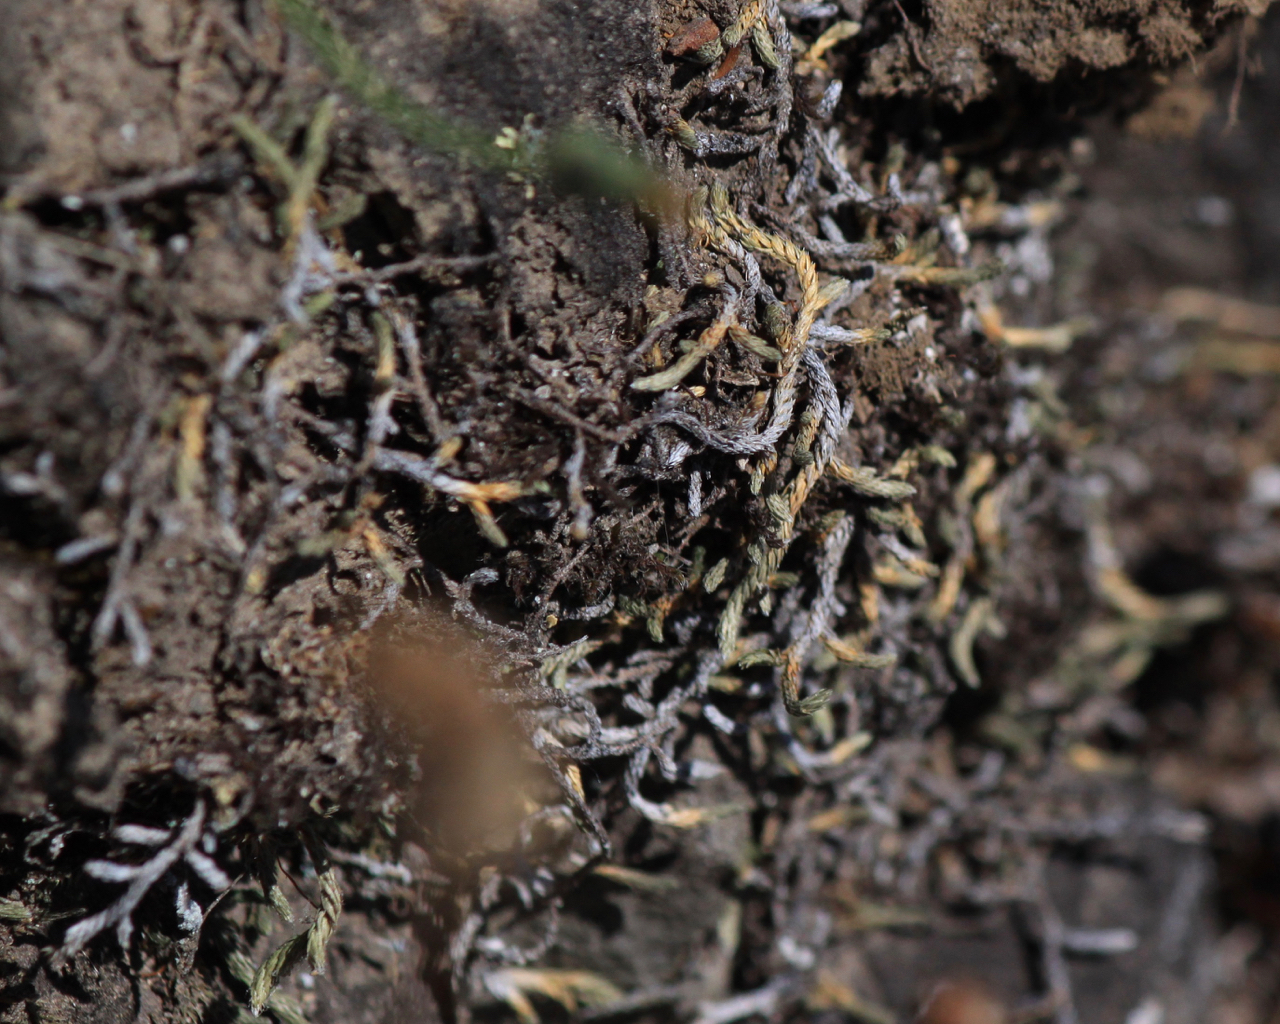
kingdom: Plantae
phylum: Tracheophyta
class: Lycopodiopsida
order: Selaginellales
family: Selaginellaceae
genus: Selaginella
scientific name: Selaginella wallacei
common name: Wallace's selaginella
